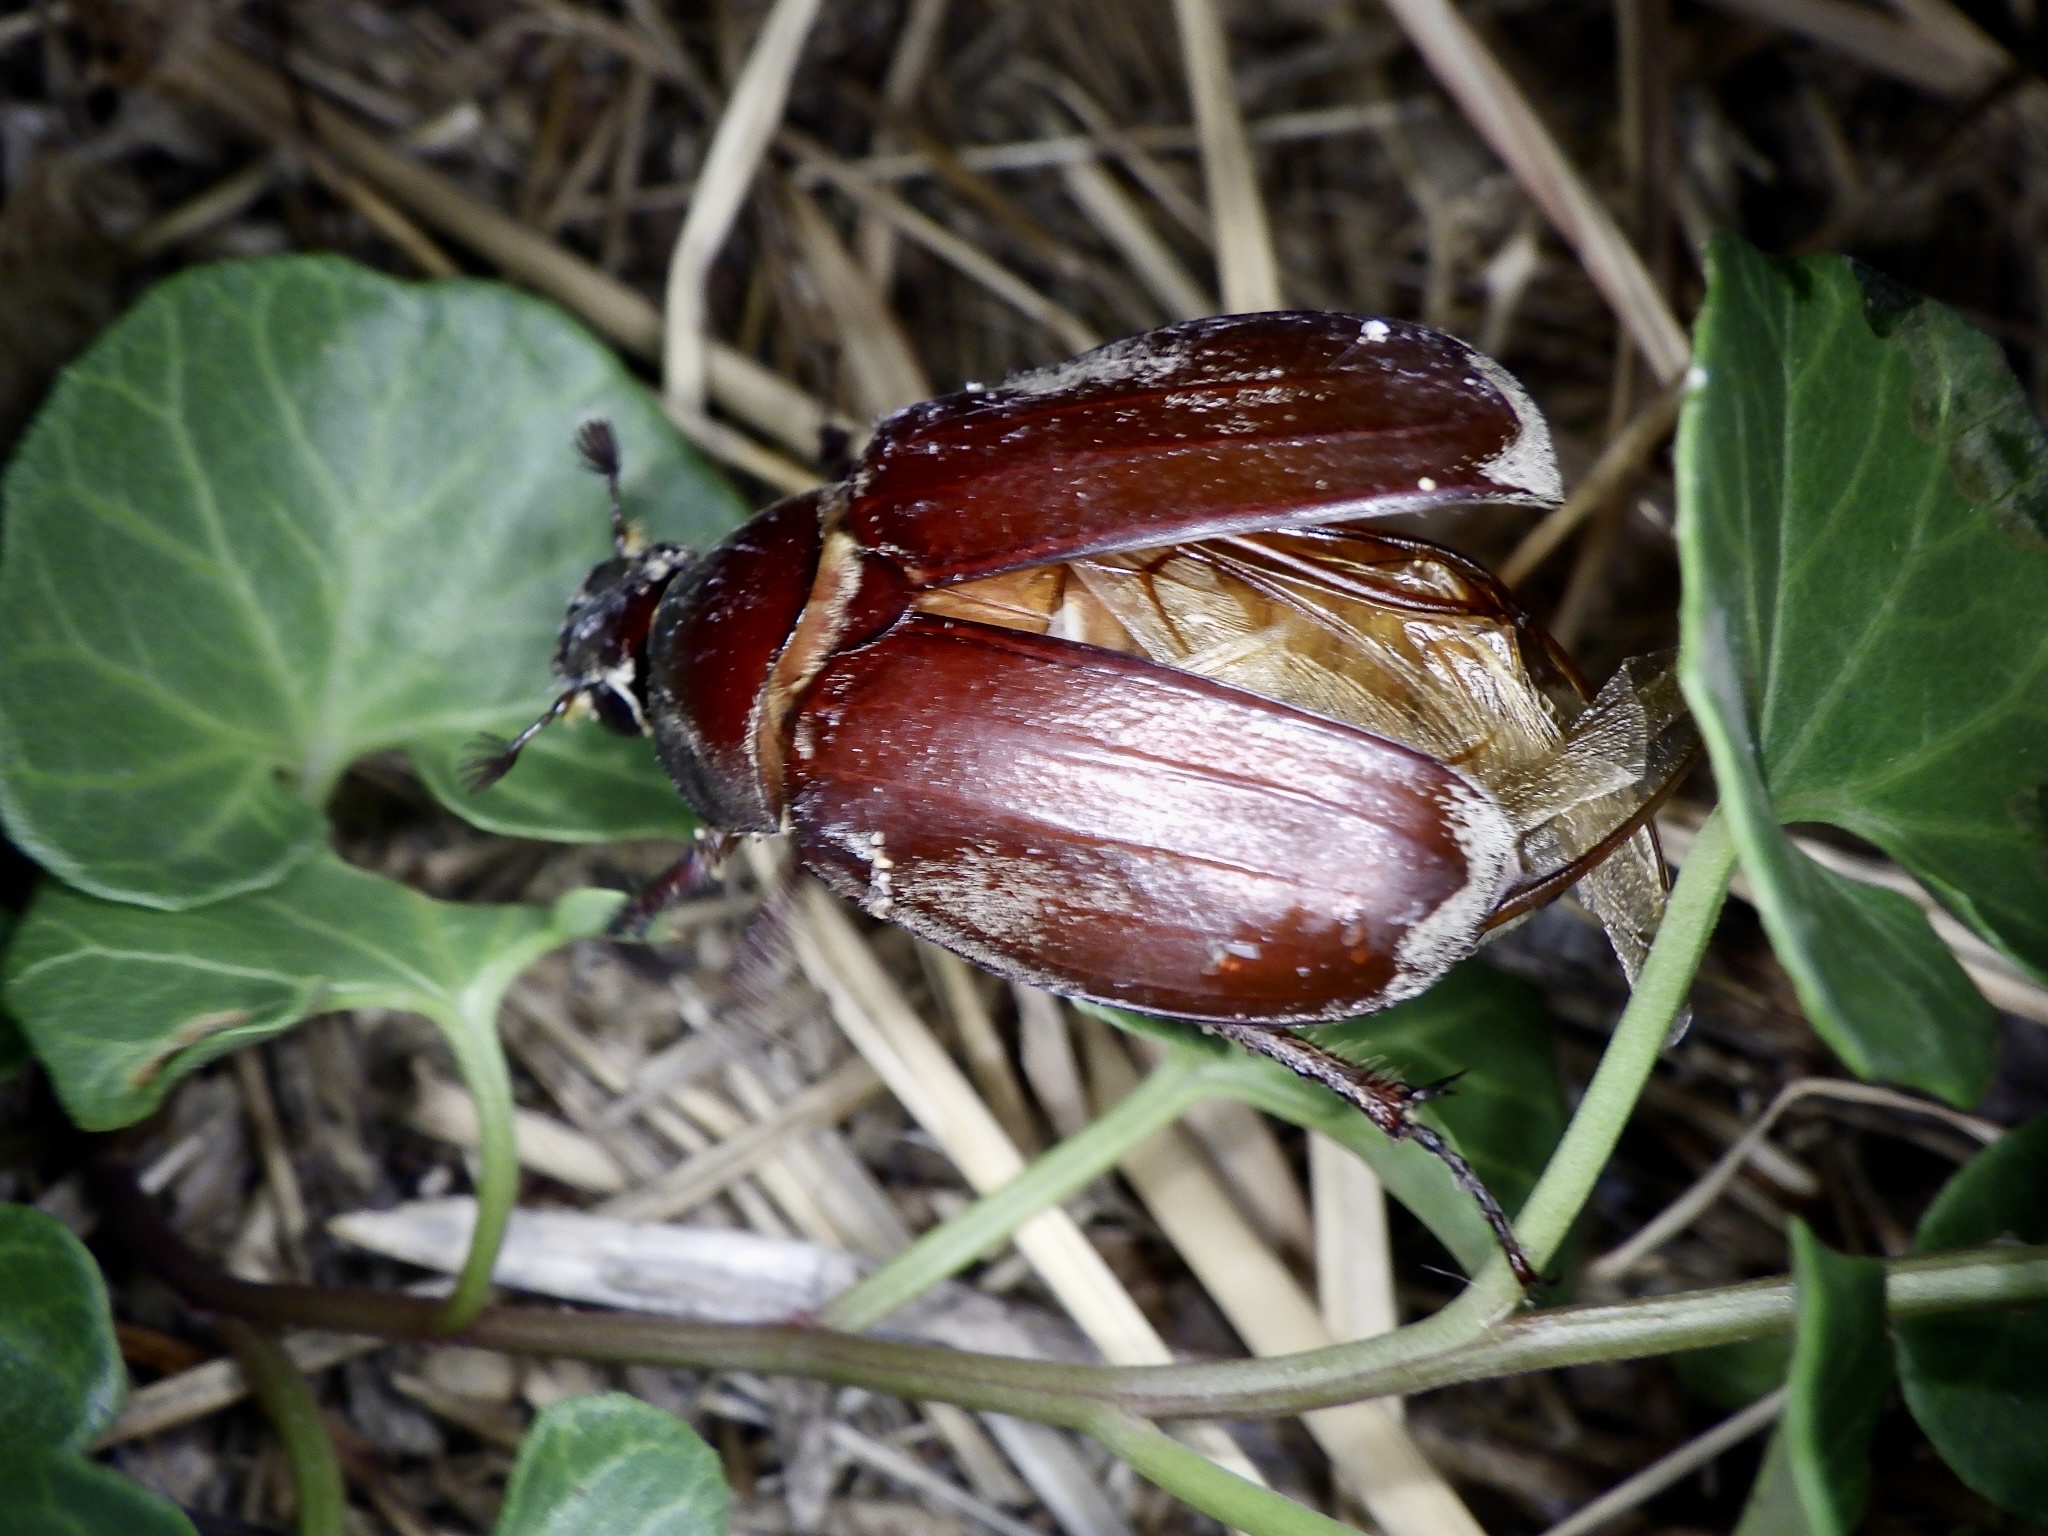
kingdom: Animalia
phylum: Arthropoda
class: Insecta
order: Coleoptera
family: Scarabaeidae
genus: Melolontha
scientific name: Melolontha frater
